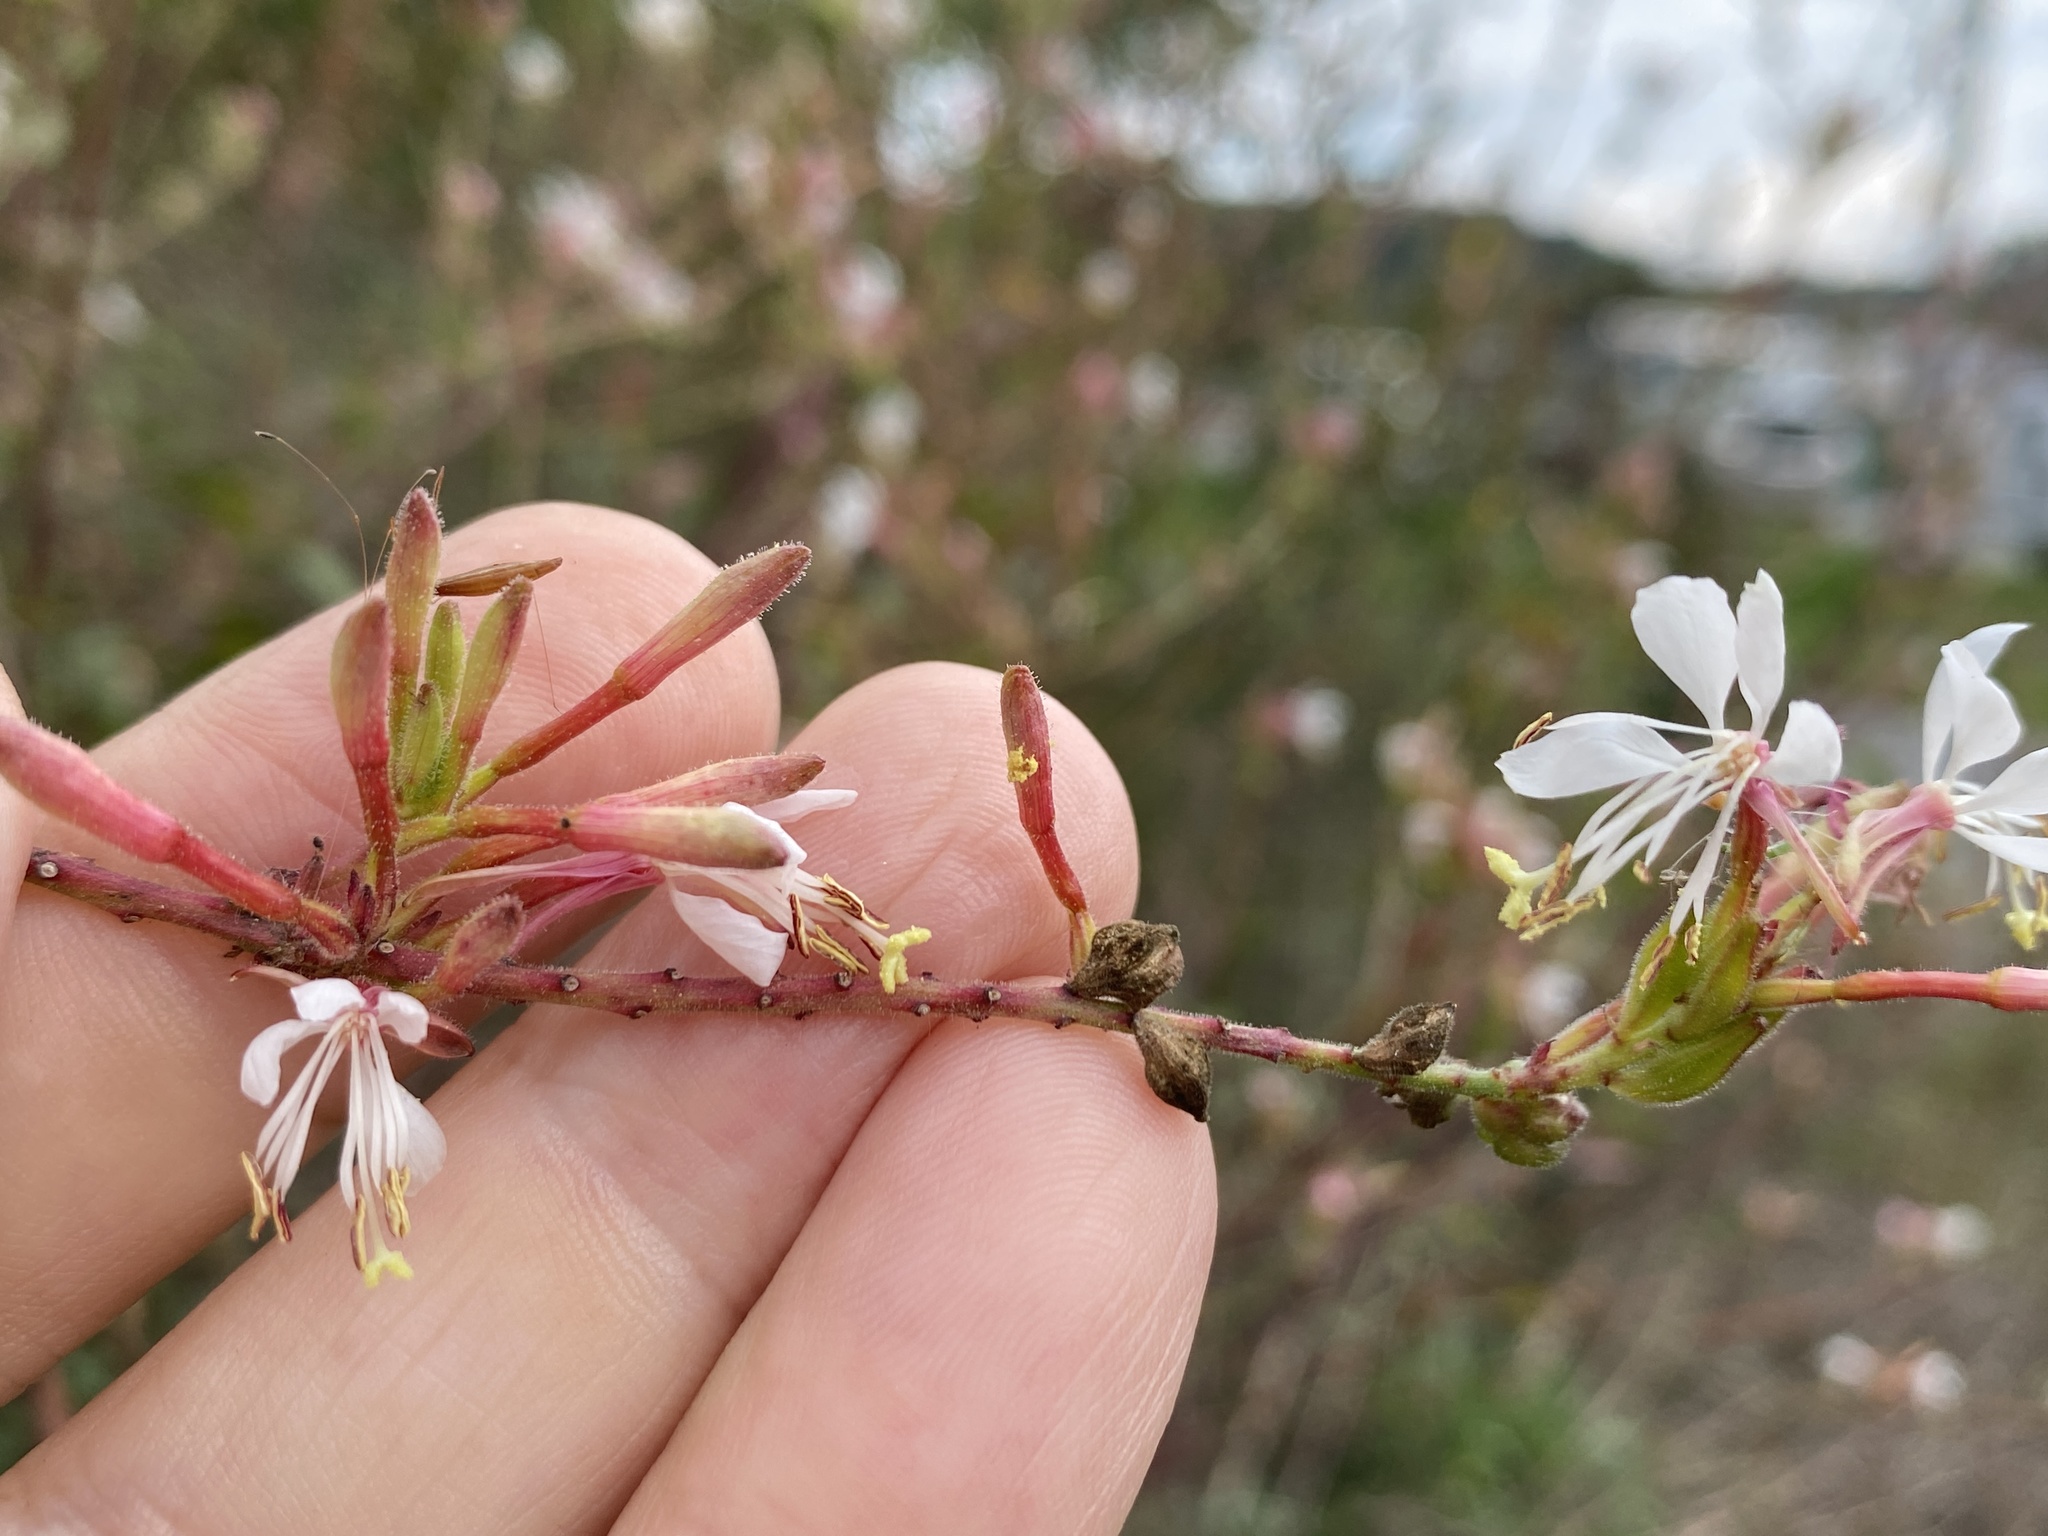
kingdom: Plantae
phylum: Tracheophyta
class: Magnoliopsida
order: Myrtales
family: Onagraceae
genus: Oenothera
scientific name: Oenothera gaura
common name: Biennial beeblossom
